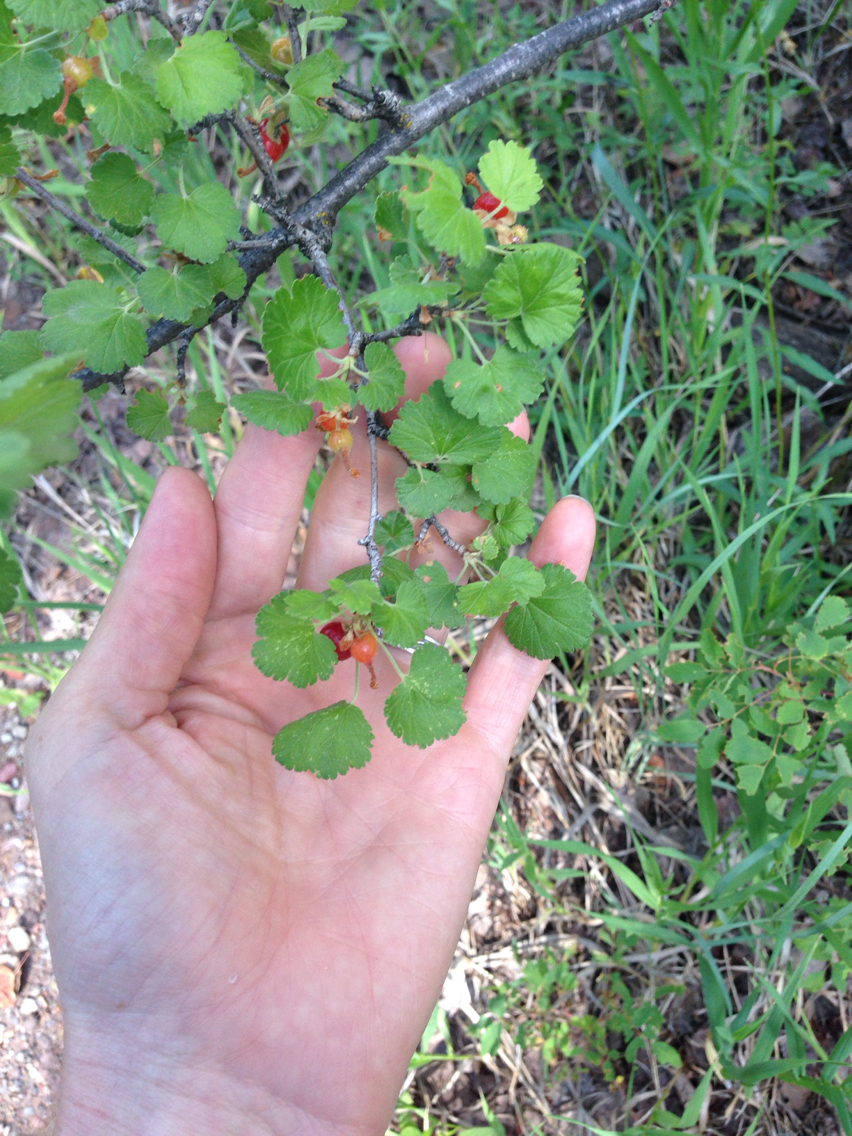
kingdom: Plantae
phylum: Tracheophyta
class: Magnoliopsida
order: Saxifragales
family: Grossulariaceae
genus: Ribes
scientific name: Ribes cereum
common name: Wax currant
